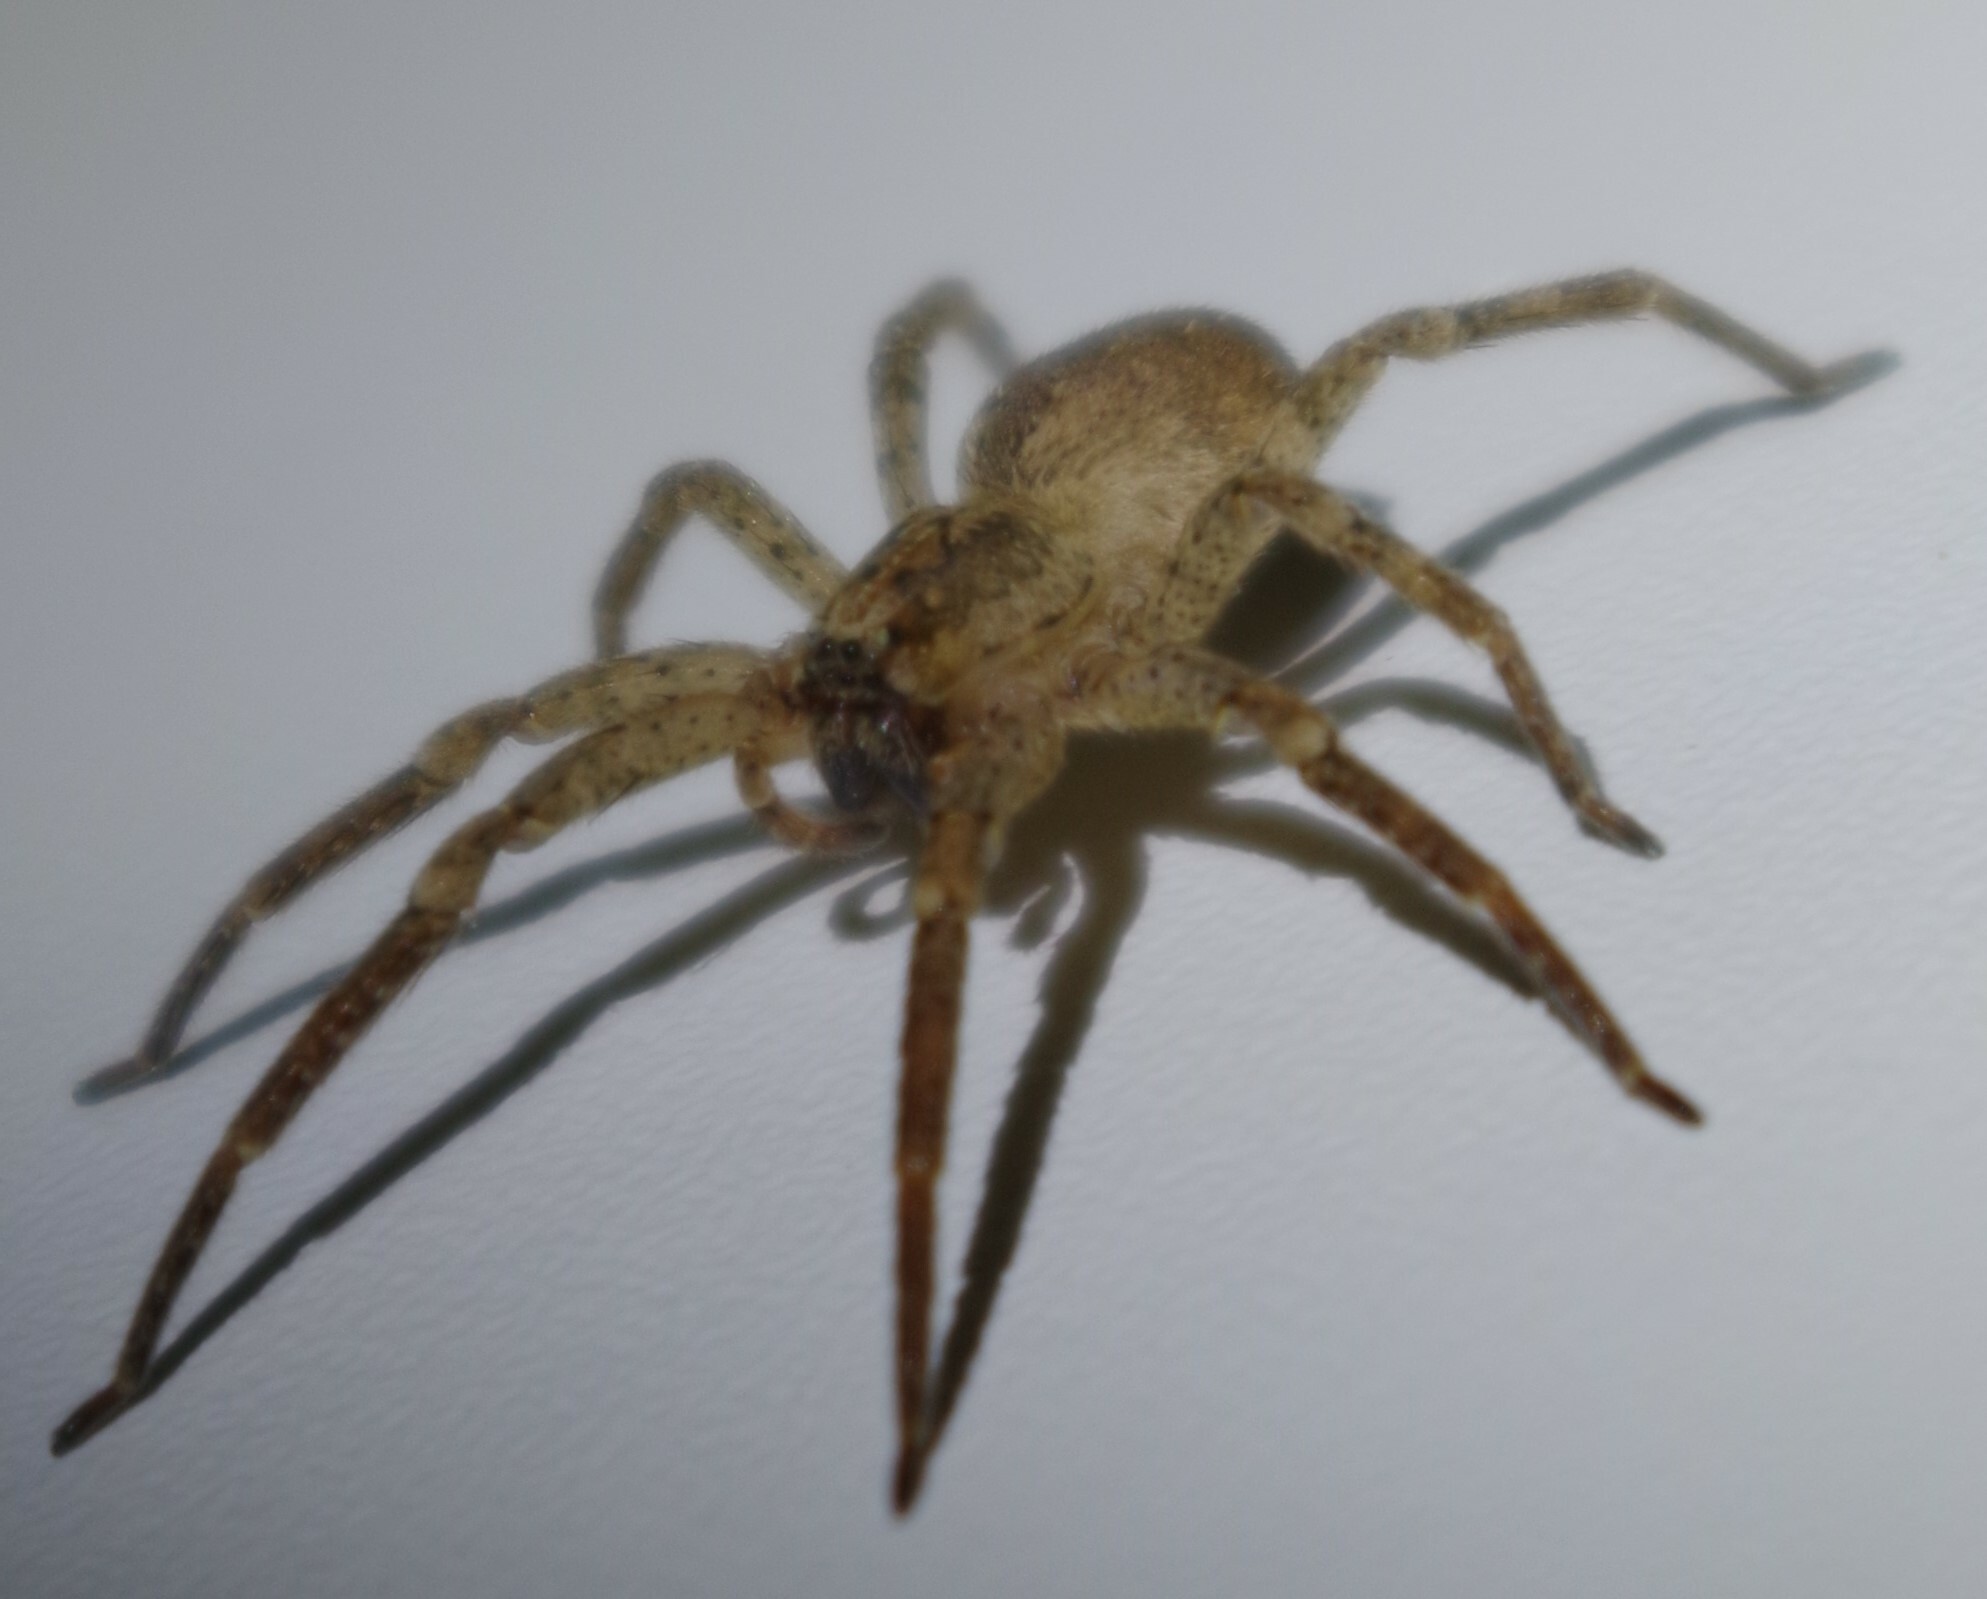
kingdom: Animalia
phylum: Arthropoda
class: Arachnida
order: Araneae
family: Zoropsidae
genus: Zoropsis
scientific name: Zoropsis spinimana
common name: Zoropsid spider
